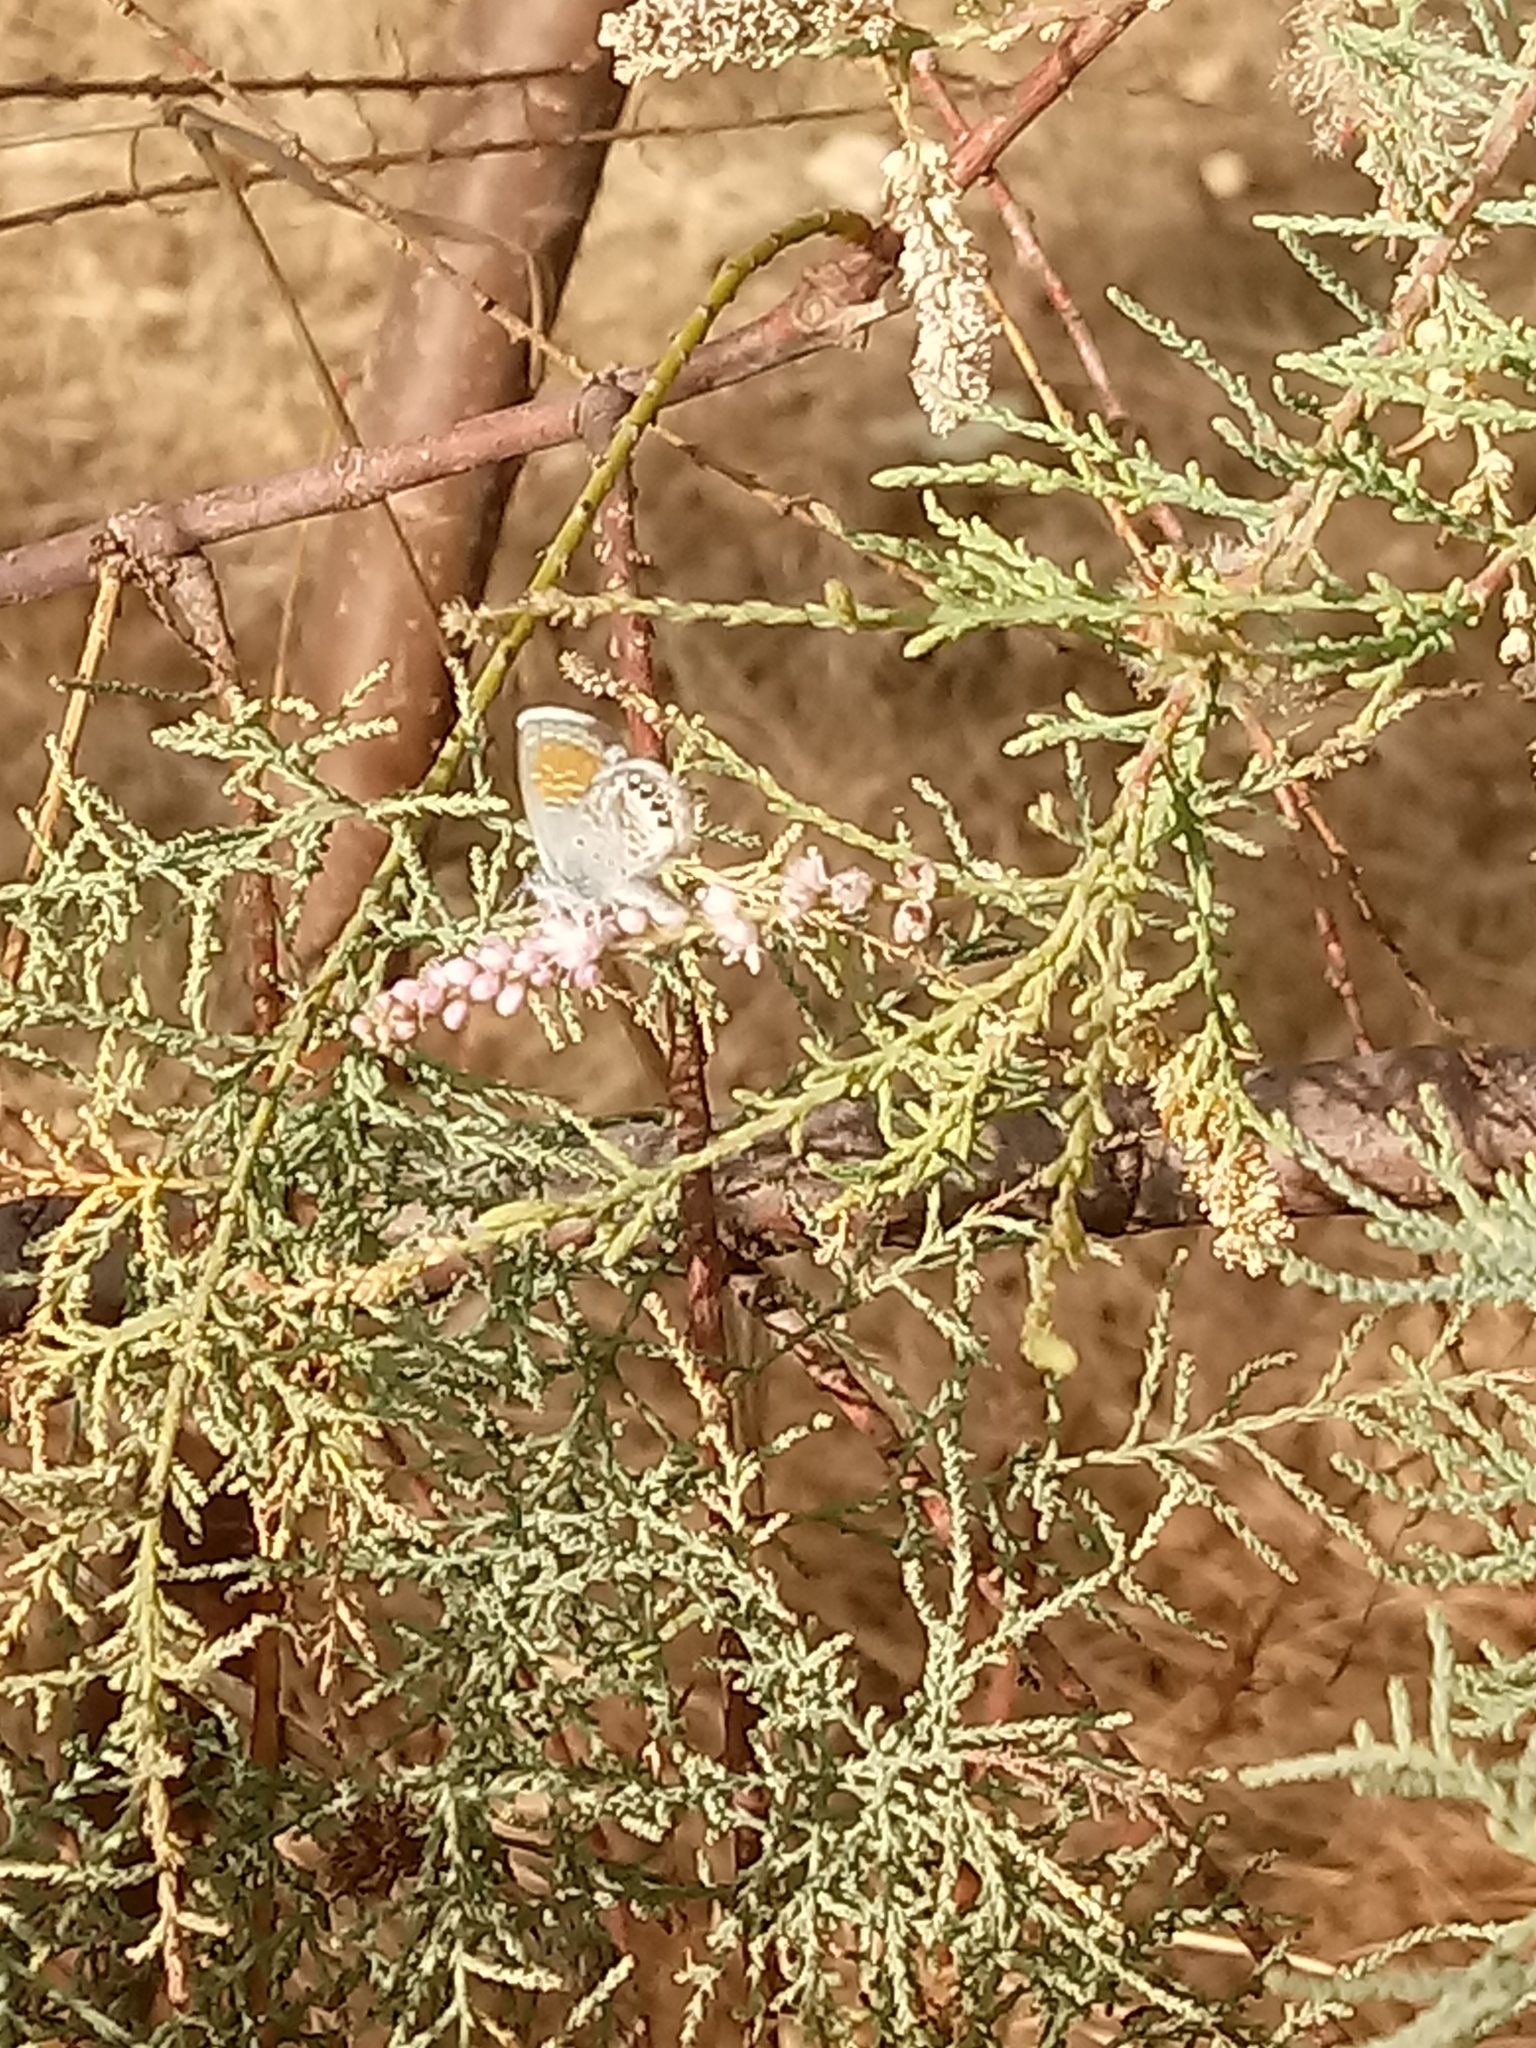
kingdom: Animalia
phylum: Arthropoda
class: Insecta
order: Lepidoptera
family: Lycaenidae
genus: Brephidium
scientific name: Brephidium exilis
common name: Pygmy blue
